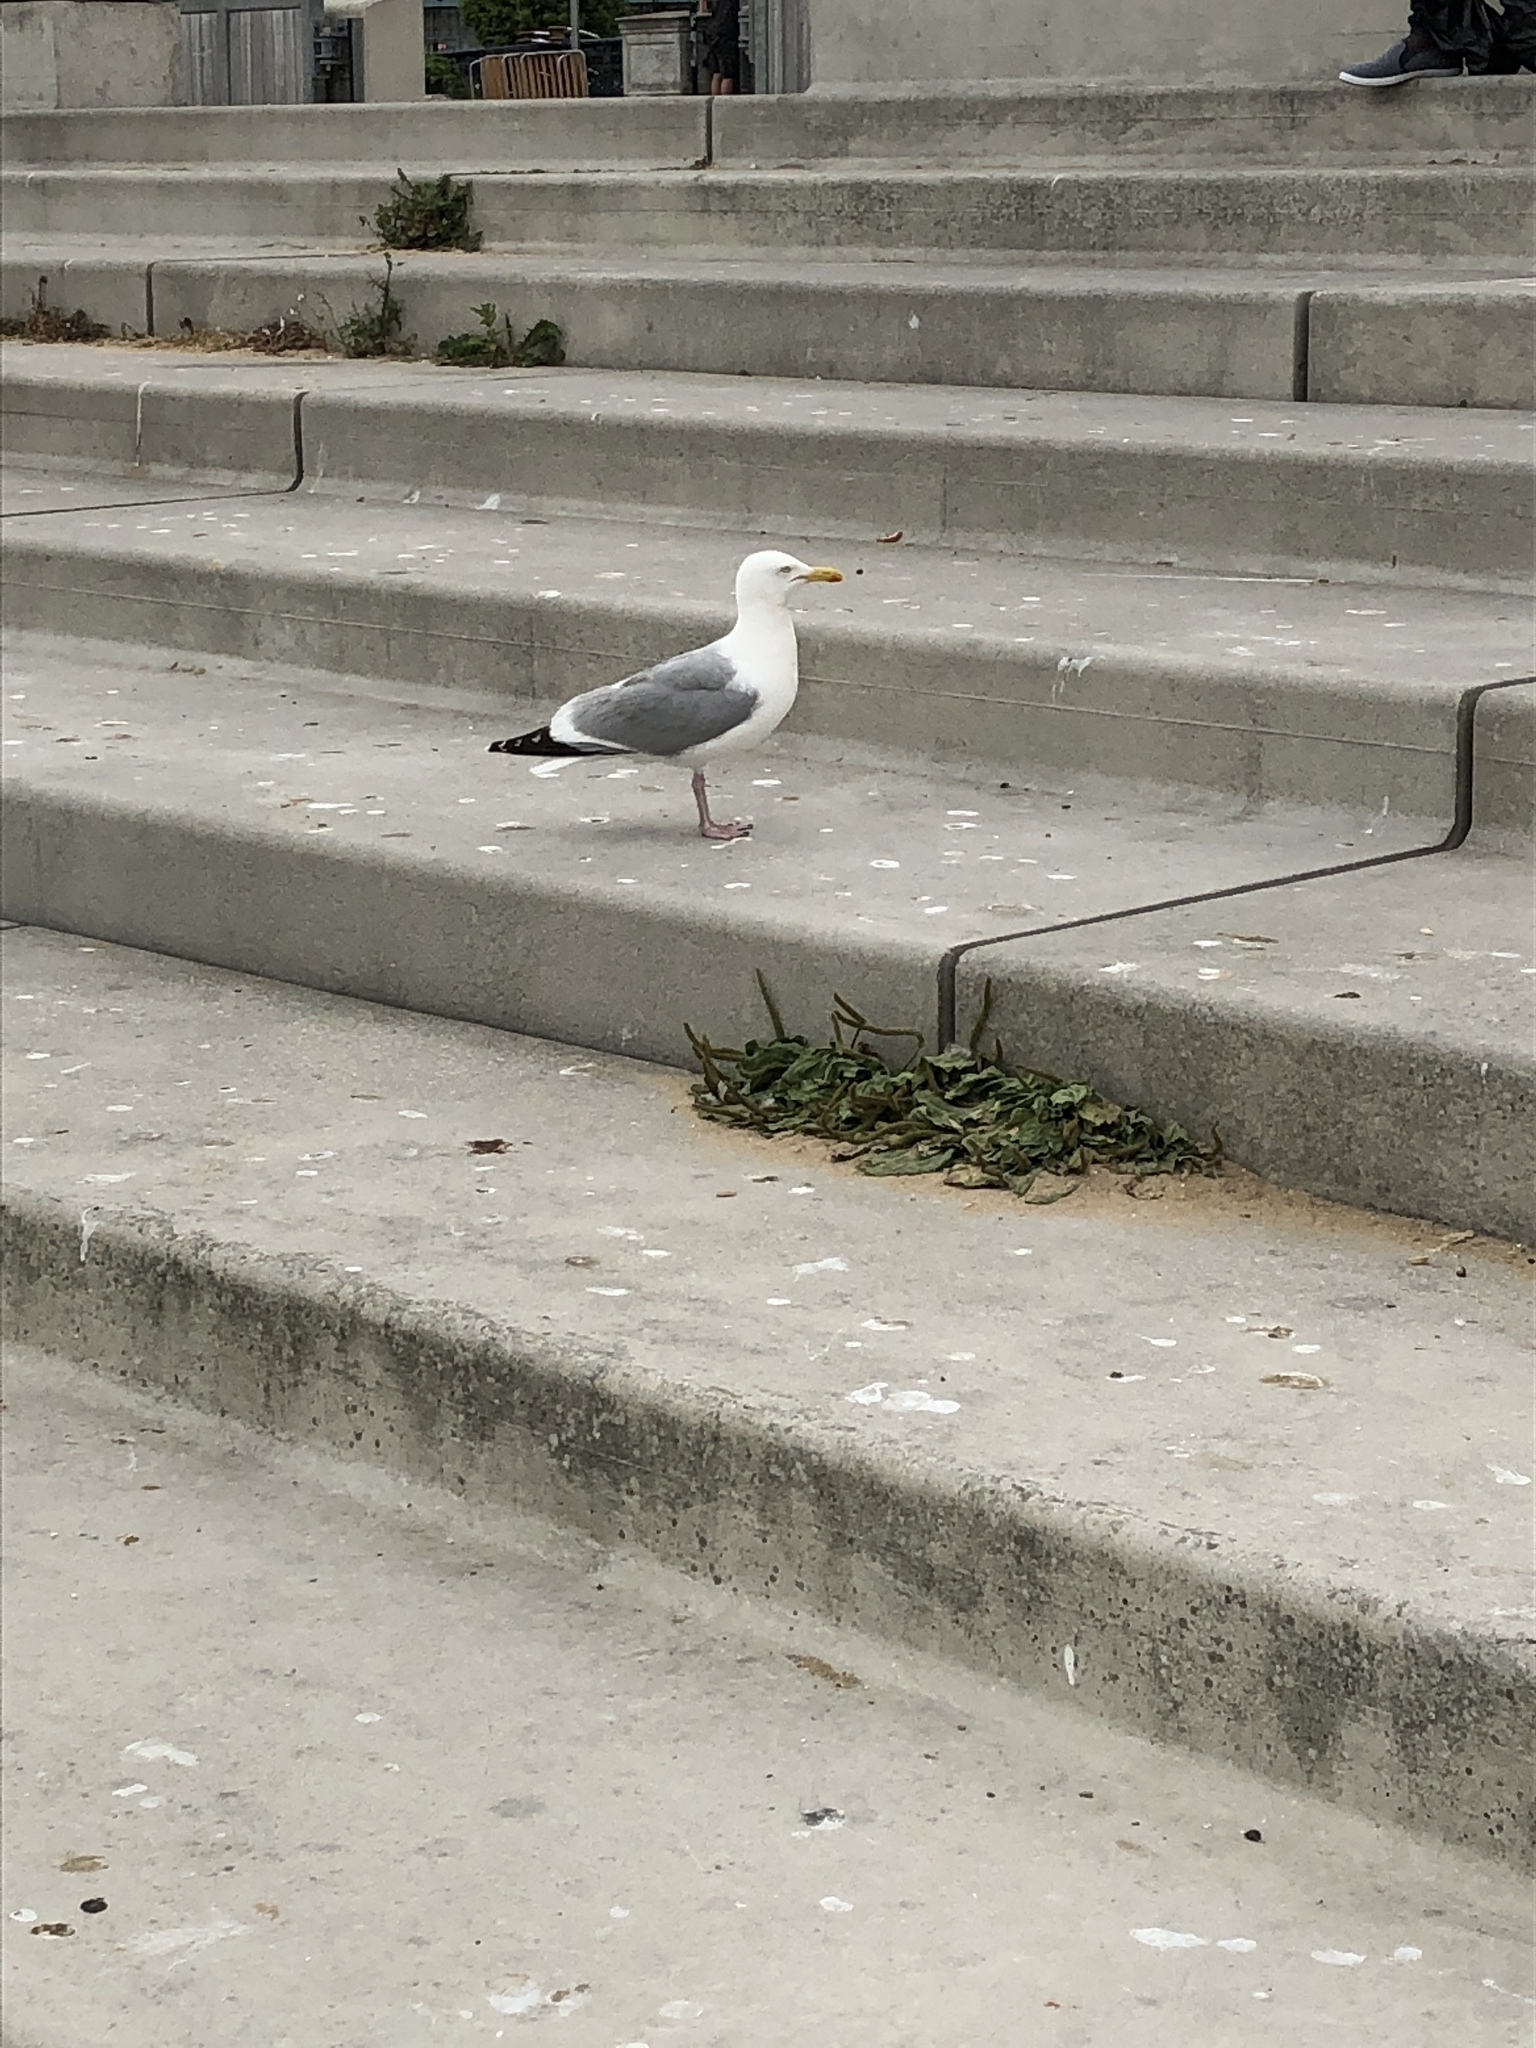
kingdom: Animalia
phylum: Chordata
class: Aves
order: Charadriiformes
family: Laridae
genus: Larus
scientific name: Larus argentatus
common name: Herring gull
